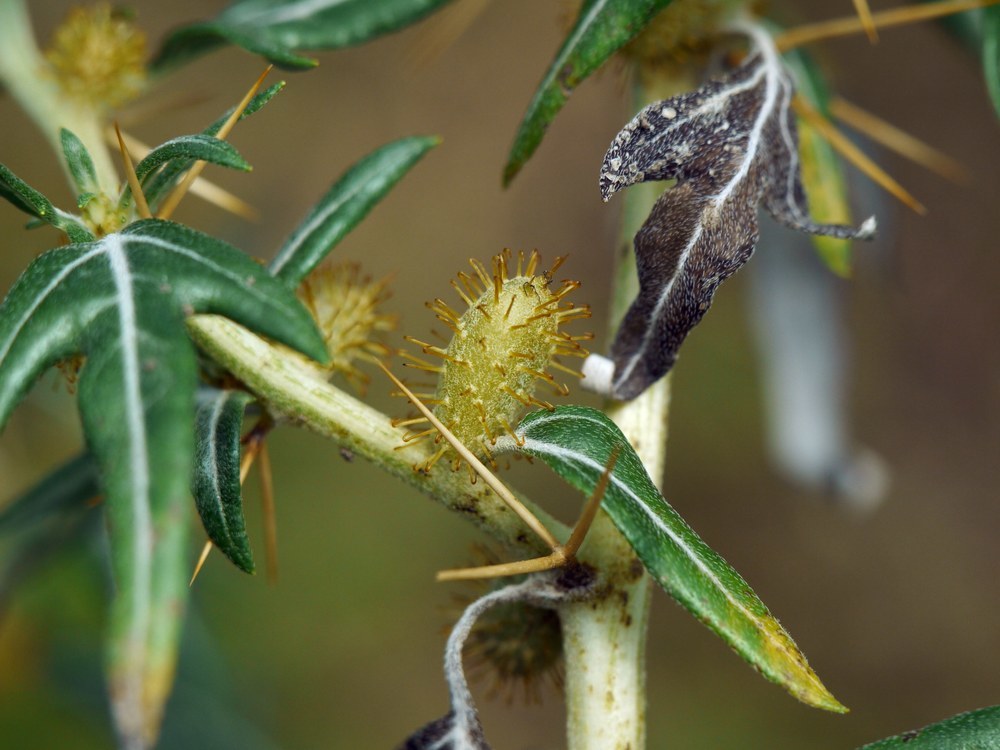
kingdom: Plantae
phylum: Tracheophyta
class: Magnoliopsida
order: Asterales
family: Asteraceae
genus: Xanthium
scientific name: Xanthium spinosum
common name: Spiny cocklebur
